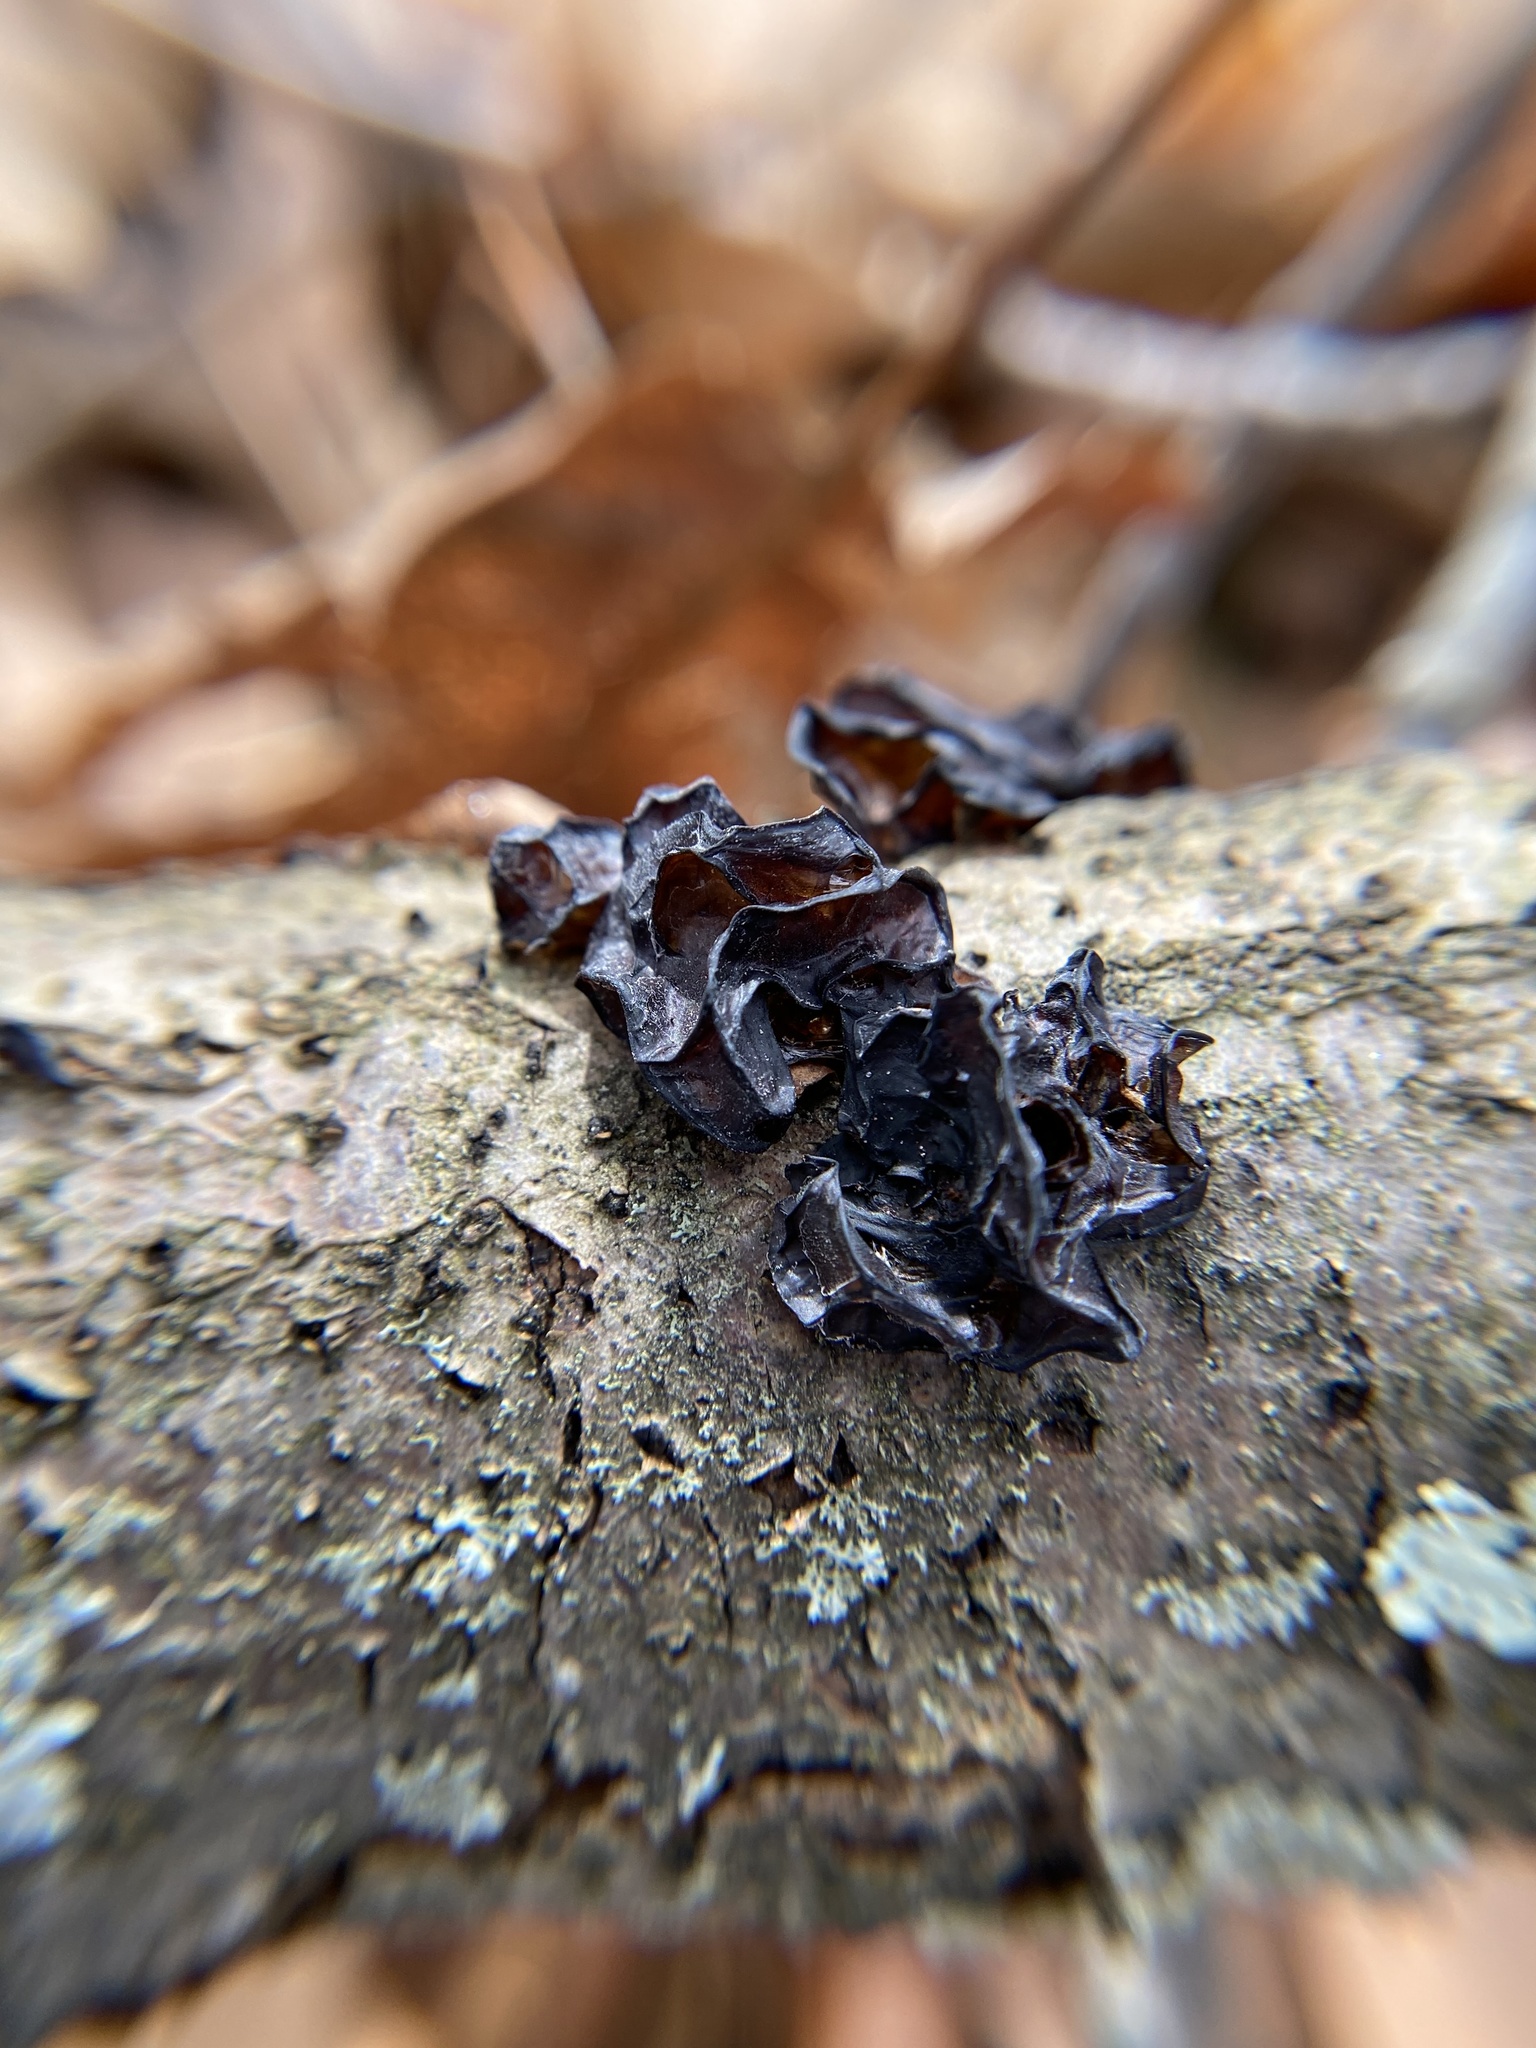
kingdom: Fungi
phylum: Basidiomycota
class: Agaricomycetes
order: Auriculariales
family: Auriculariaceae
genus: Exidia
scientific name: Exidia
